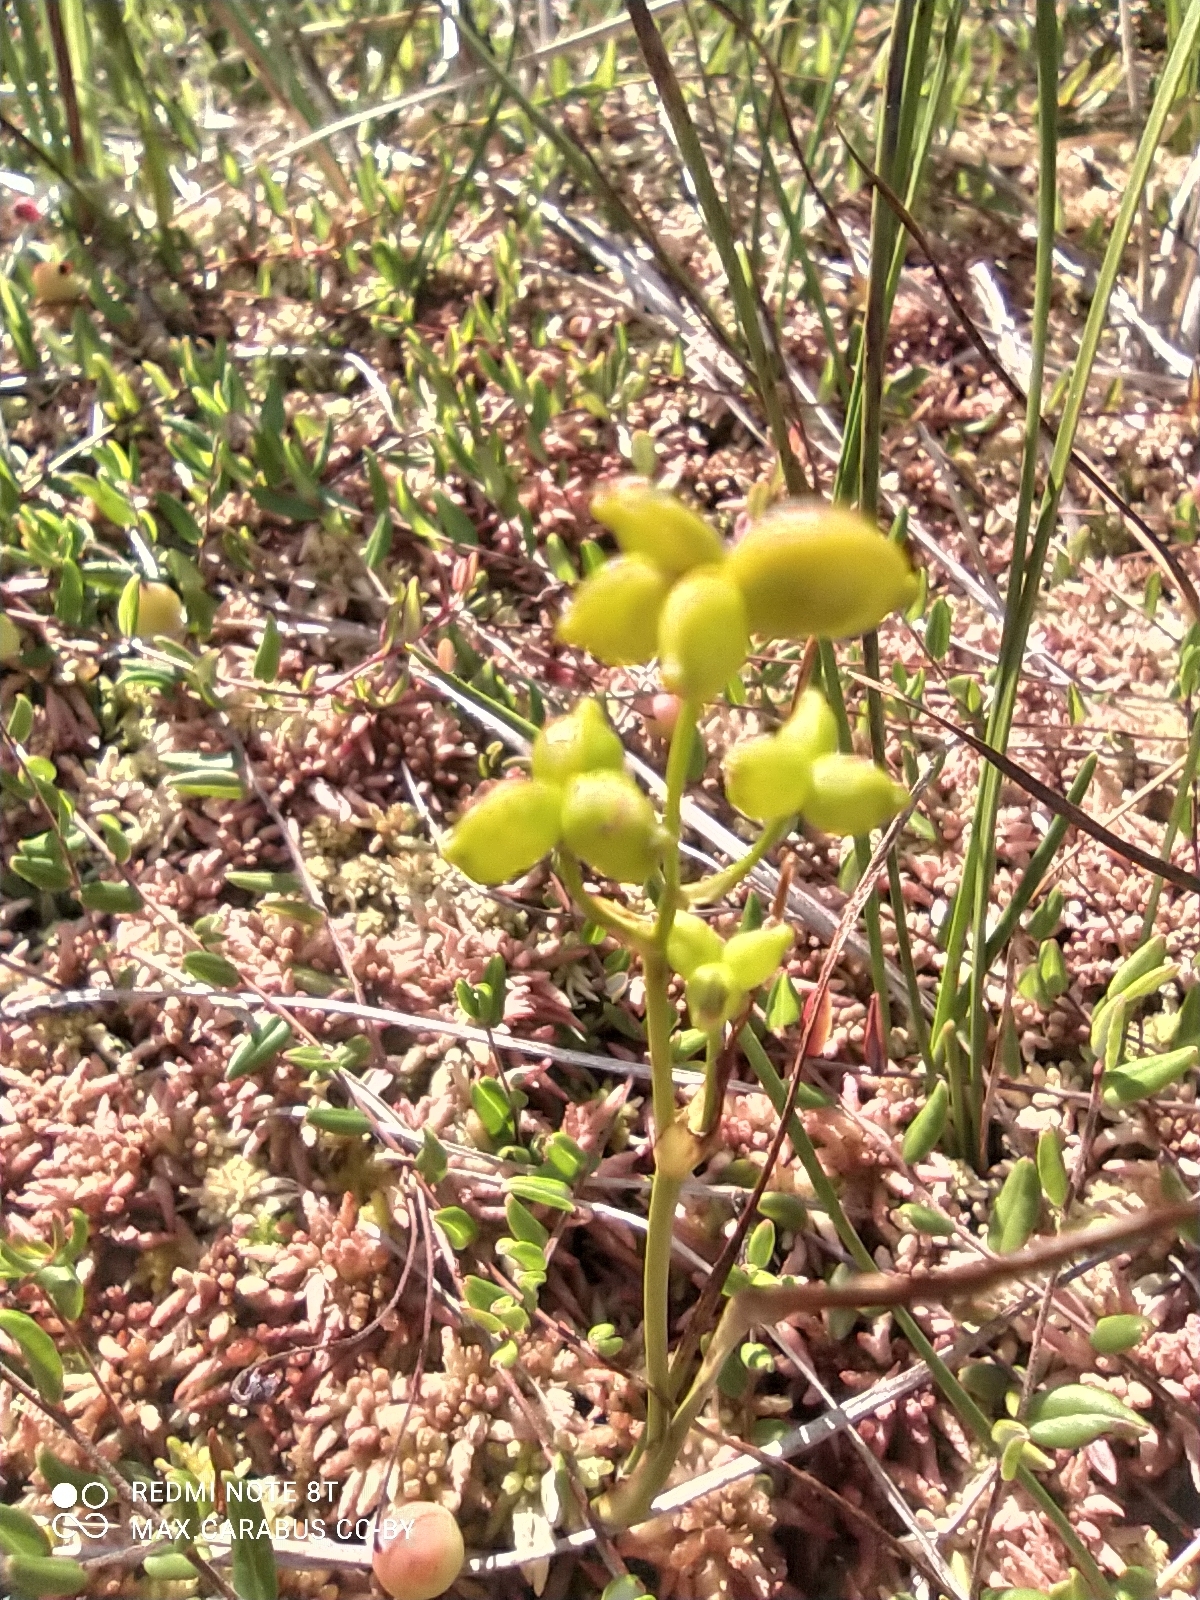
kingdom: Plantae
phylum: Tracheophyta
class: Liliopsida
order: Alismatales
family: Scheuchzeriaceae
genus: Scheuchzeria
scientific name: Scheuchzeria palustris
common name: Rannoch-rush
